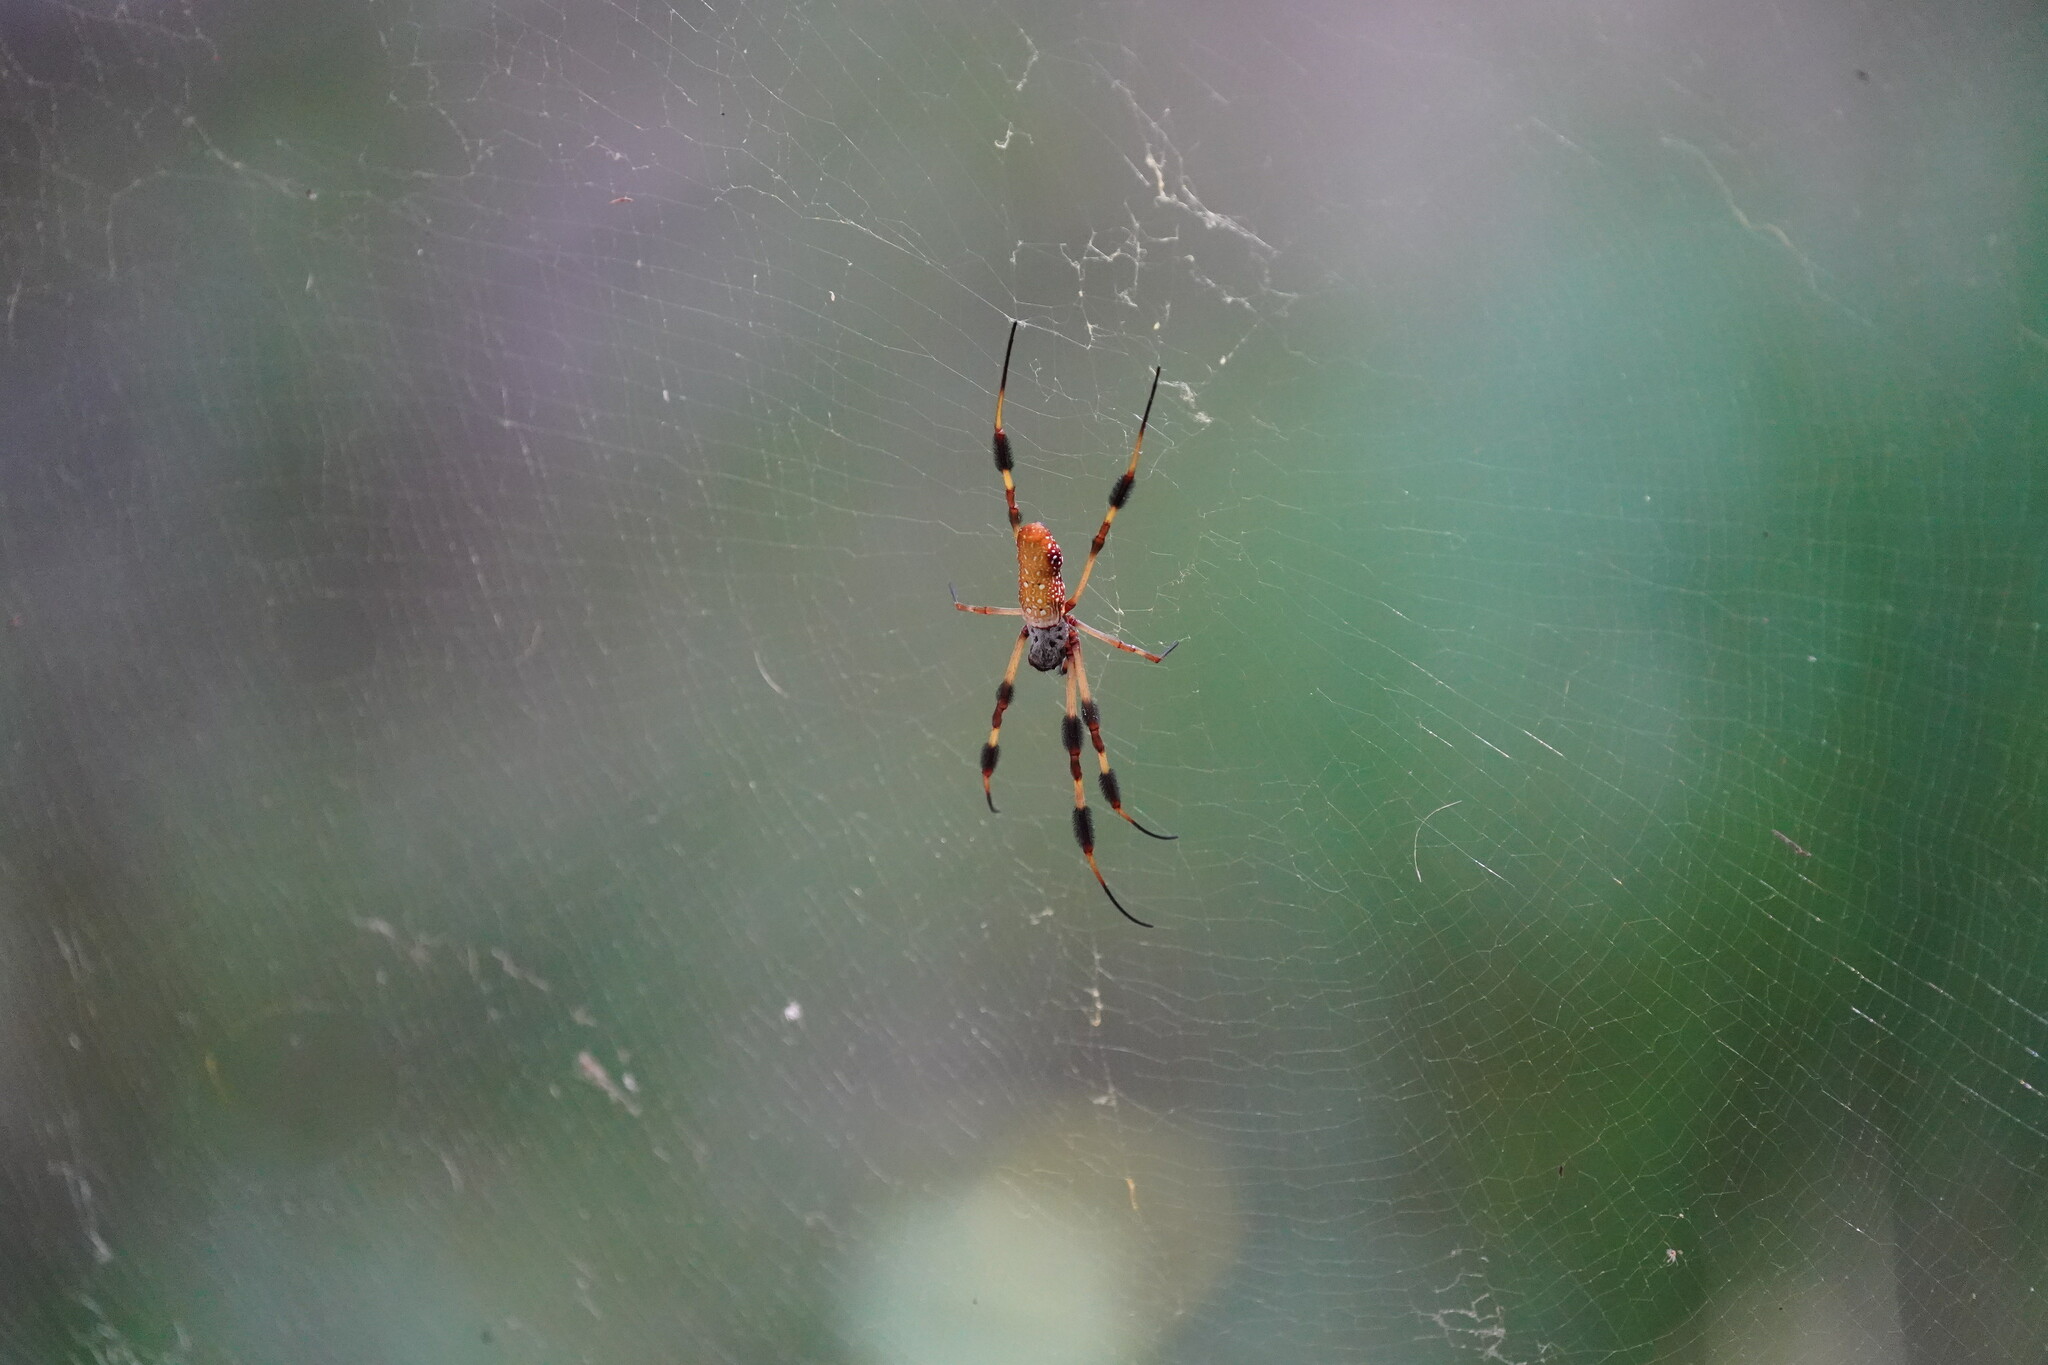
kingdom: Animalia
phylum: Arthropoda
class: Arachnida
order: Araneae
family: Araneidae
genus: Trichonephila
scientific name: Trichonephila clavipes
